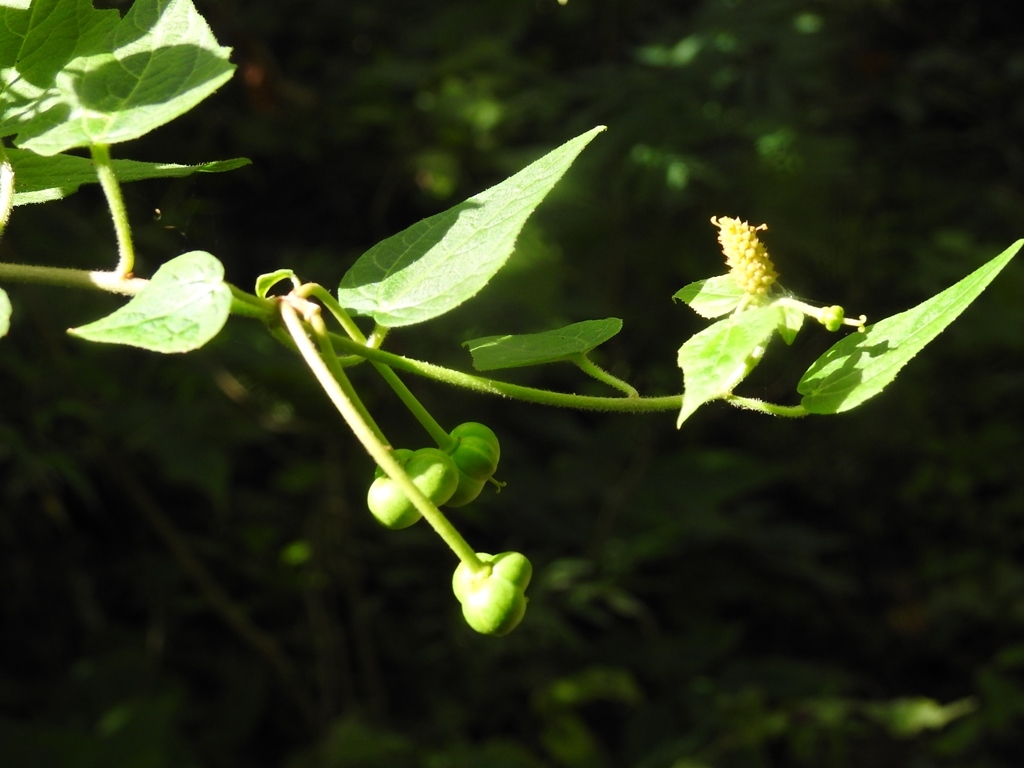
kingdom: Plantae
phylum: Tracheophyta
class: Magnoliopsida
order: Malpighiales
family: Euphorbiaceae
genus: Dalembertia
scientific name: Dalembertia triangularis
